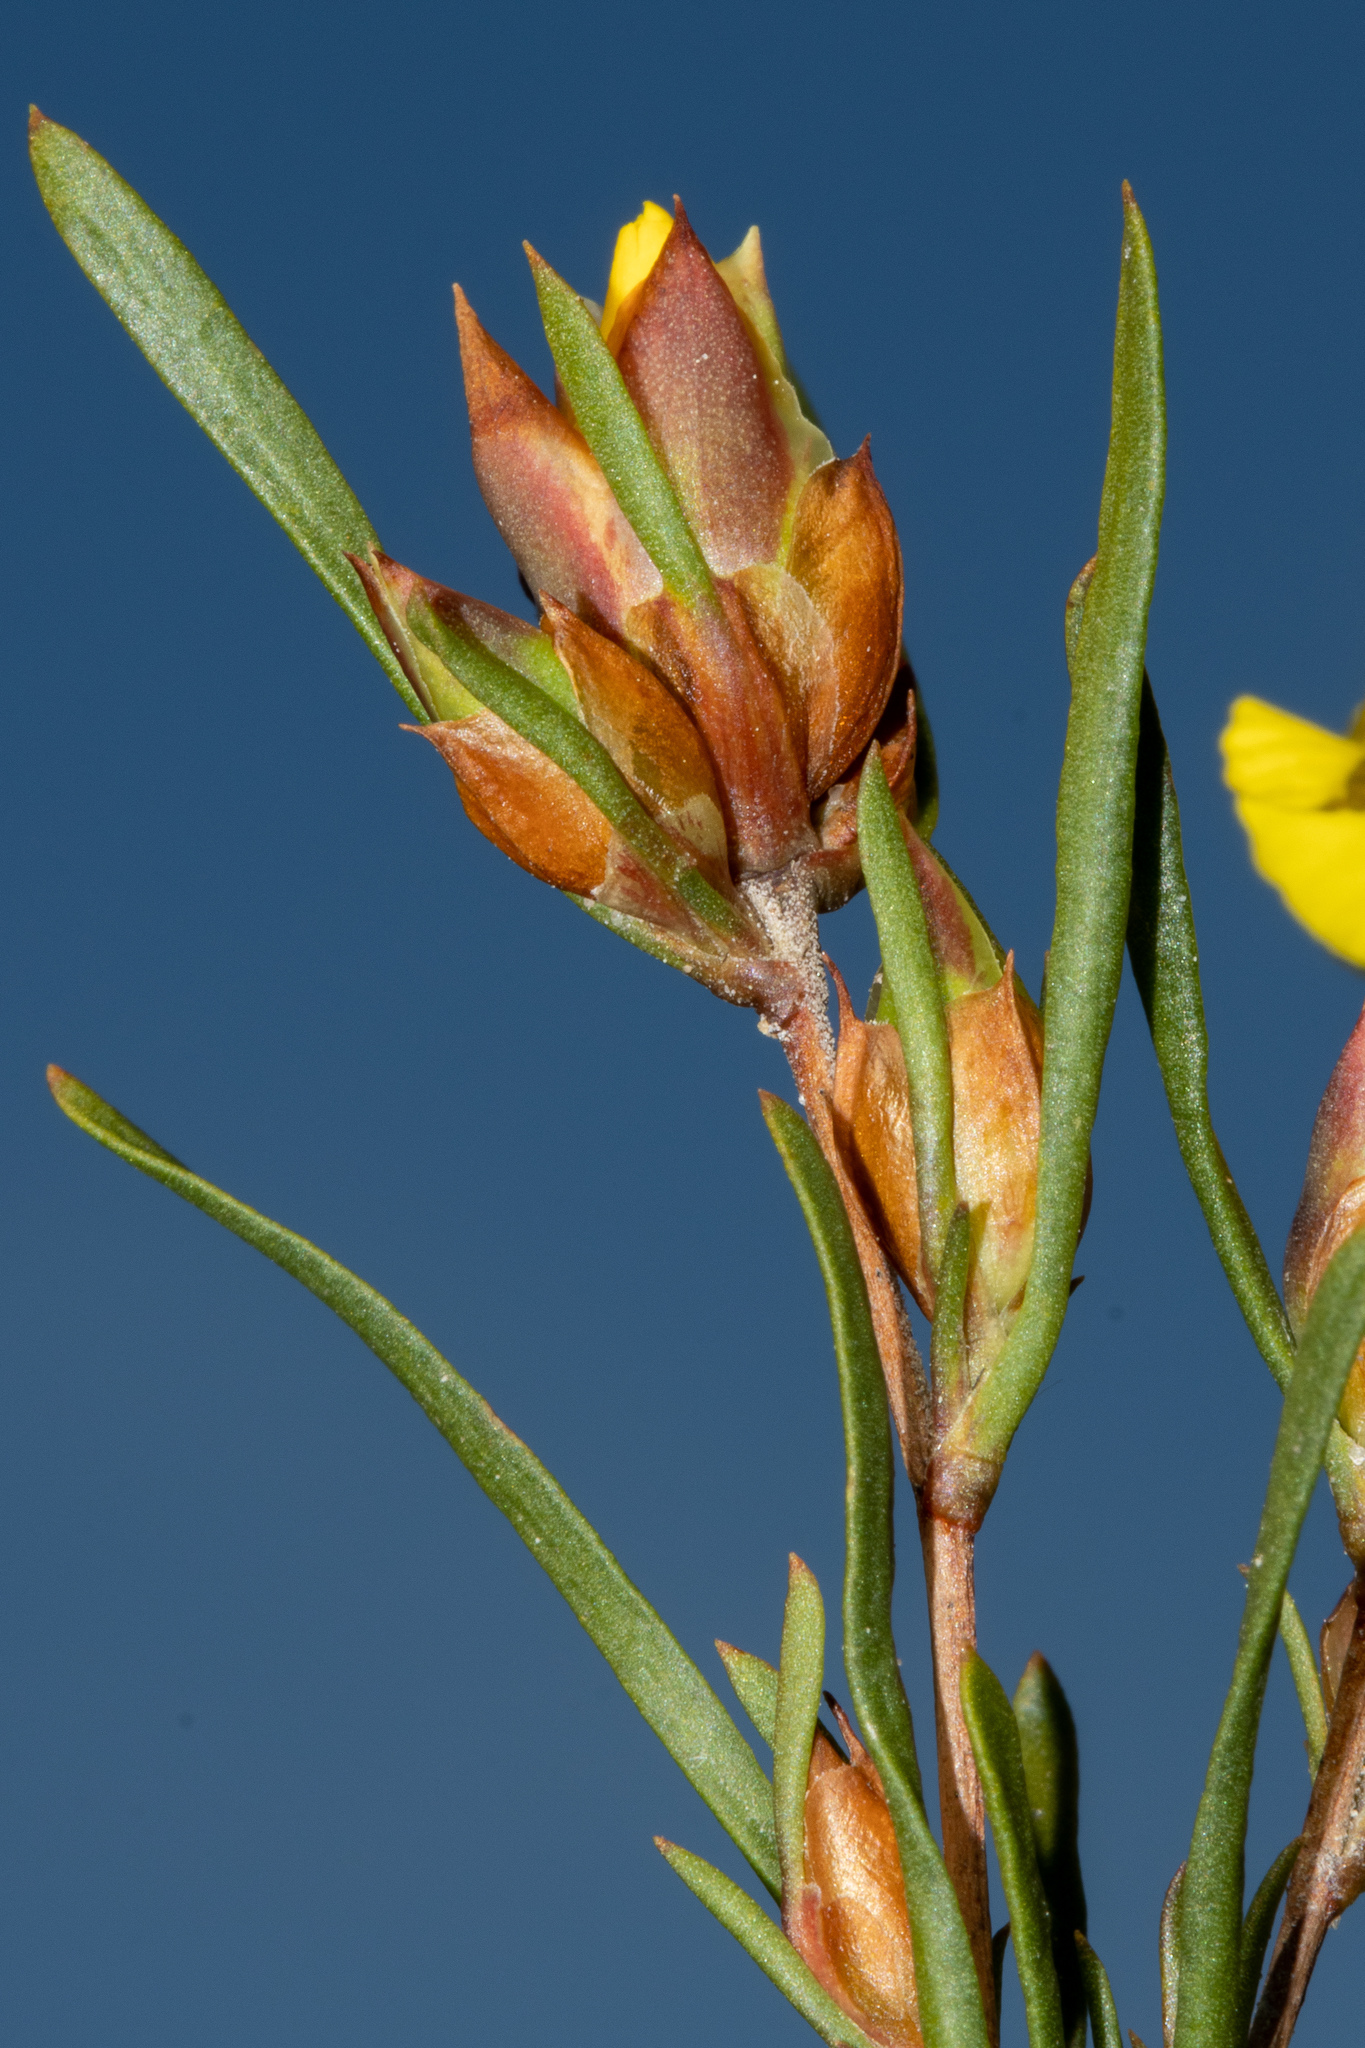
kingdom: Plantae
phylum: Tracheophyta
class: Magnoliopsida
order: Dilleniales
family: Dilleniaceae
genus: Hibbertia
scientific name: Hibbertia virgata
